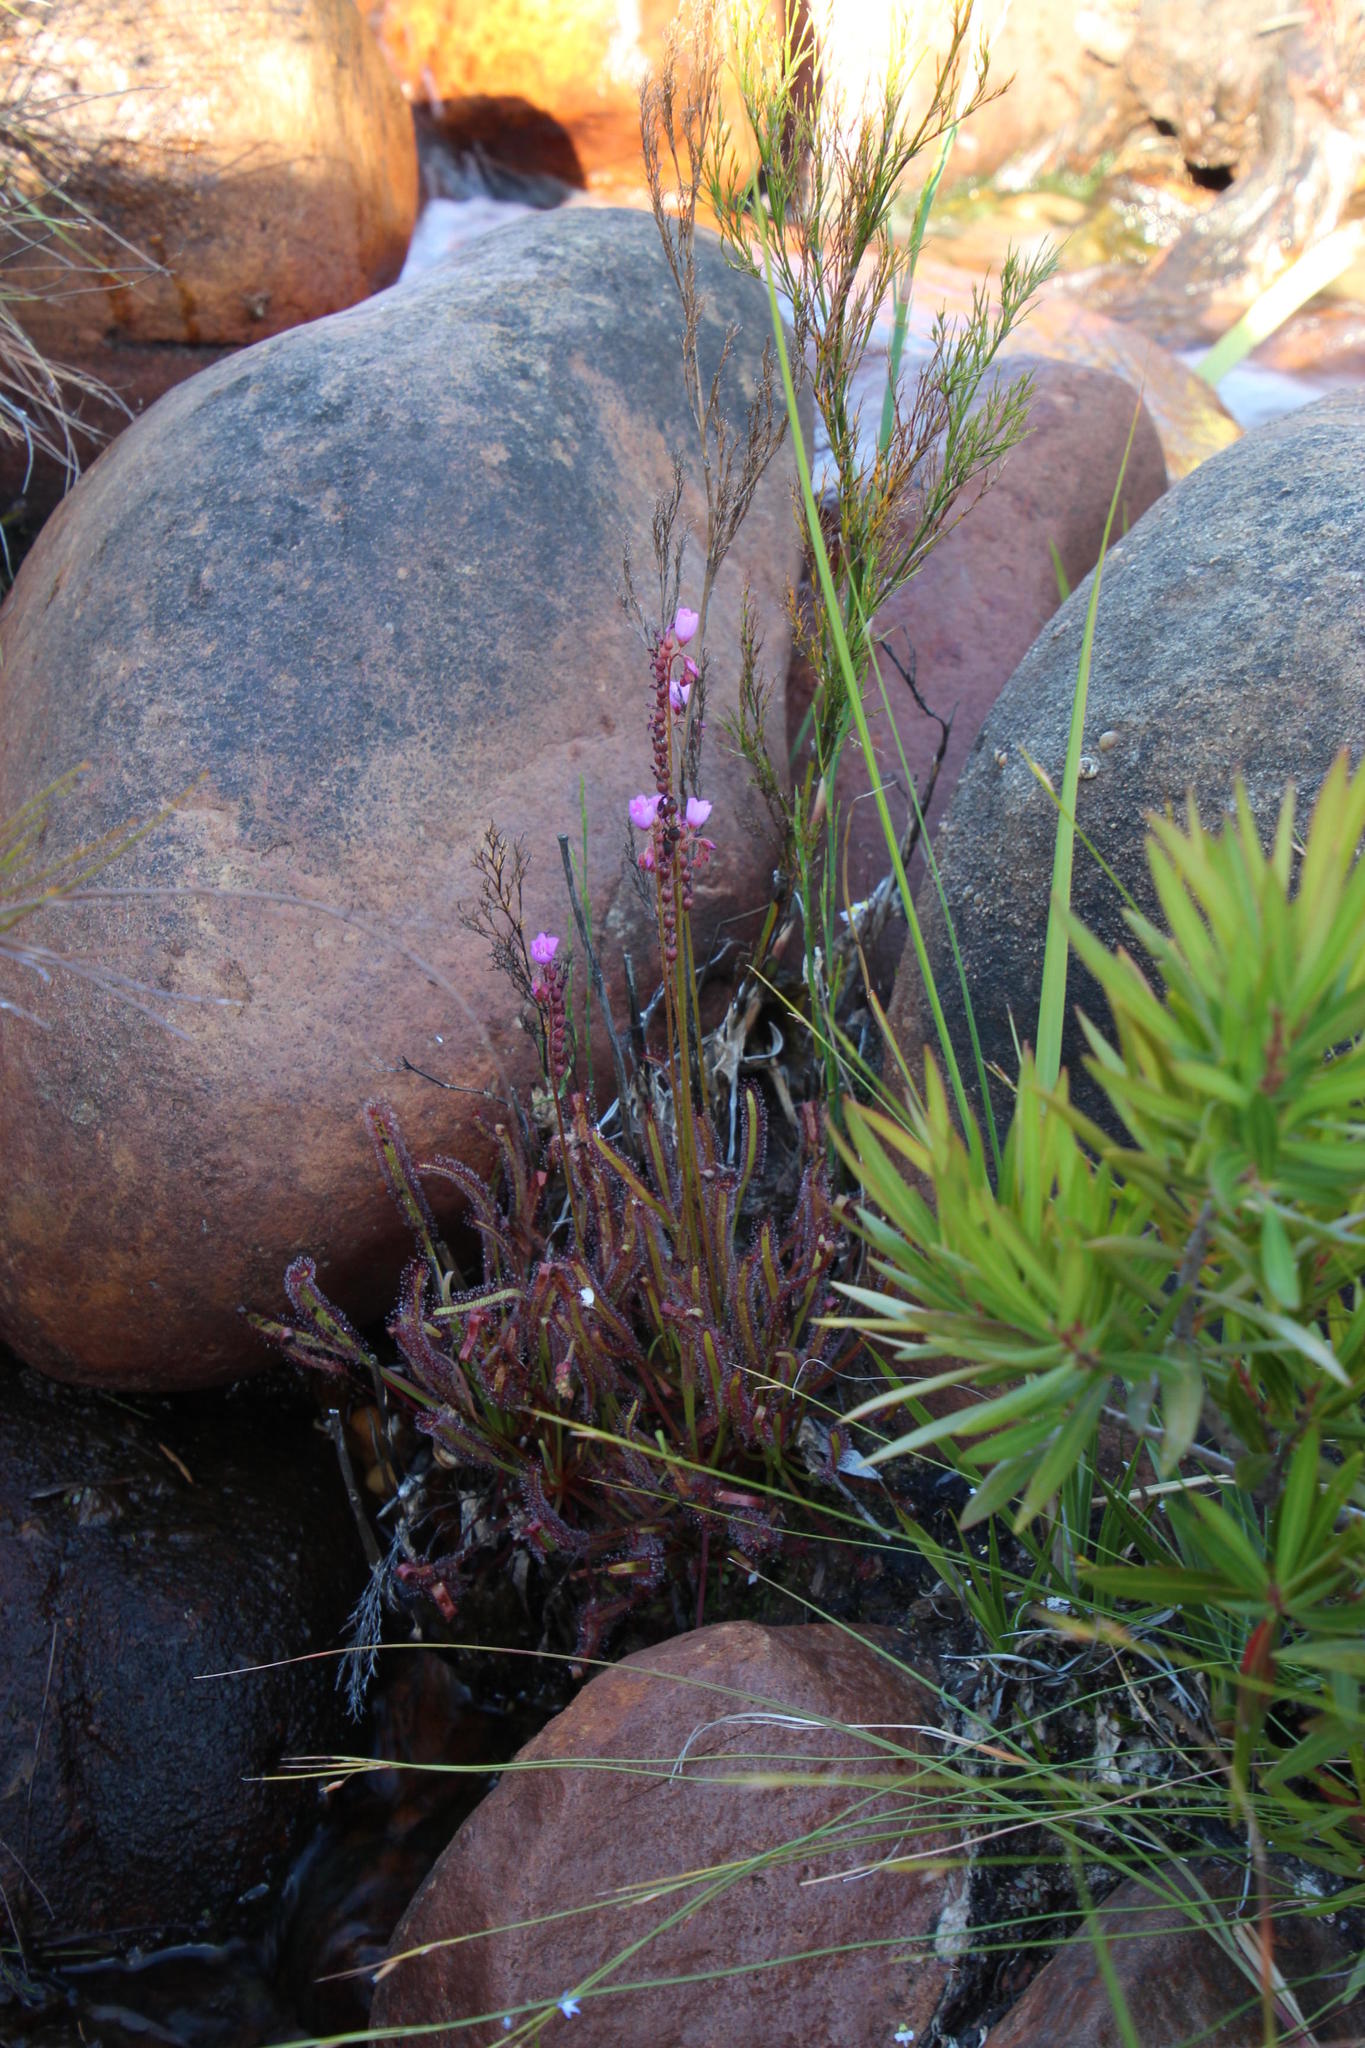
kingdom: Plantae
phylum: Tracheophyta
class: Magnoliopsida
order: Caryophyllales
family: Droseraceae
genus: Drosera
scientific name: Drosera capensis
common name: Cape sundew
